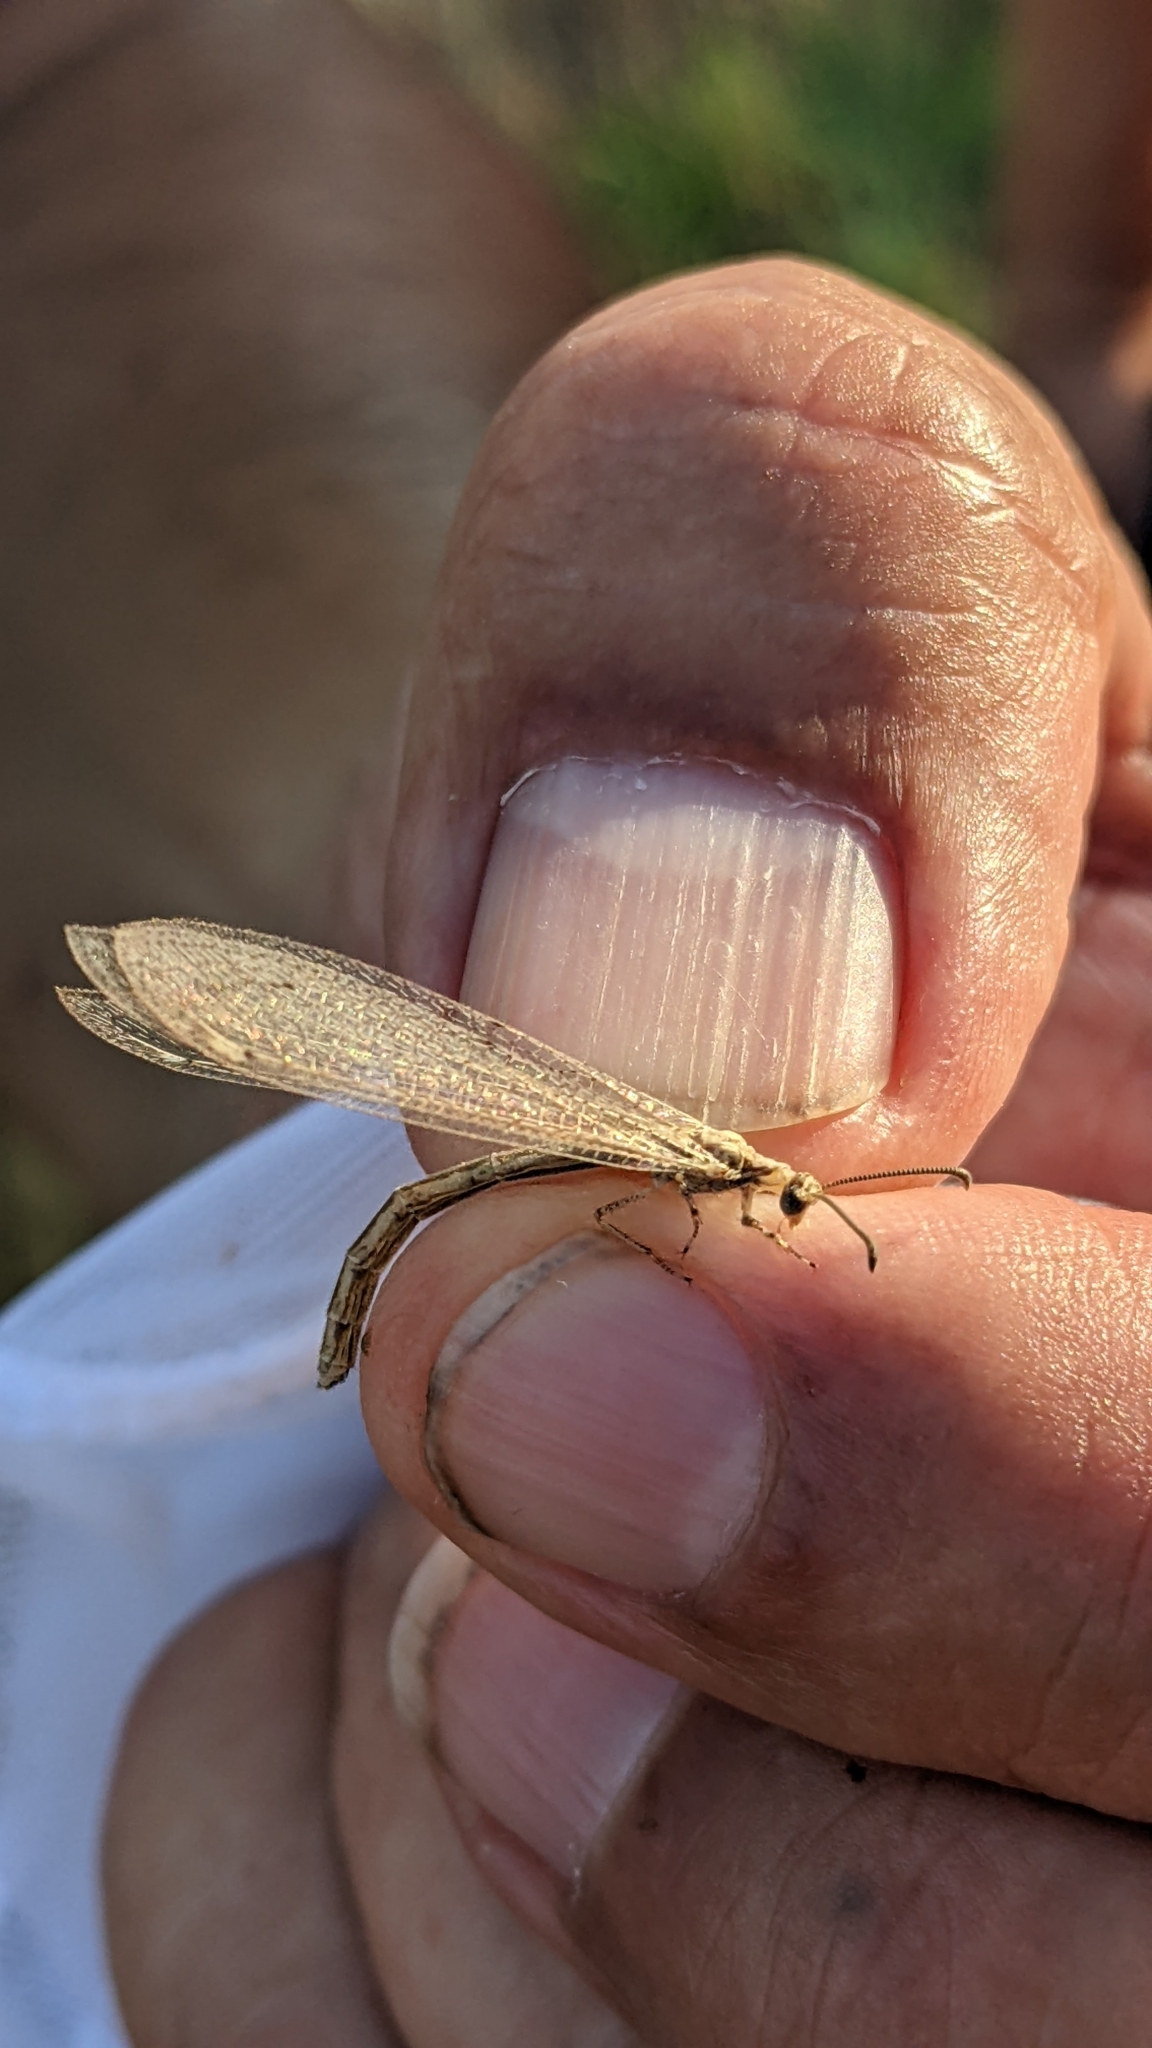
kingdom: Animalia
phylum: Arthropoda
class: Insecta
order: Neuroptera
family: Myrmeleontidae
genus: Neuroleon
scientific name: Neuroleon arenarius
